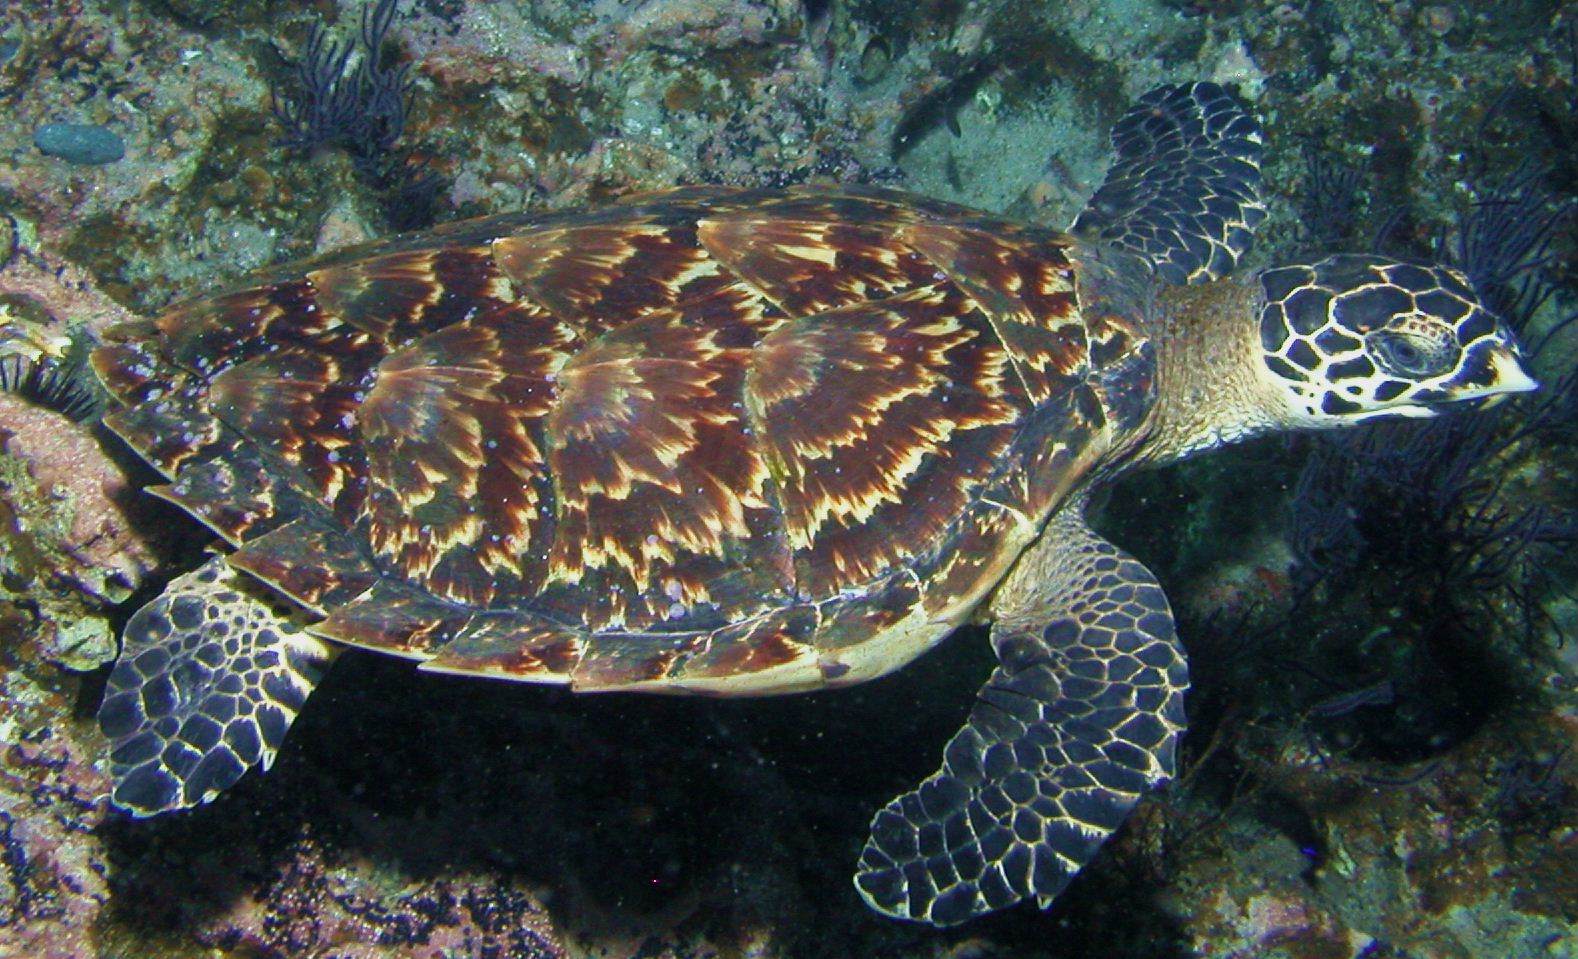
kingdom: Animalia
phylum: Chordata
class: Testudines
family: Cheloniidae
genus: Eretmochelys
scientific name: Eretmochelys imbricata
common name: Hawksbill turtle
